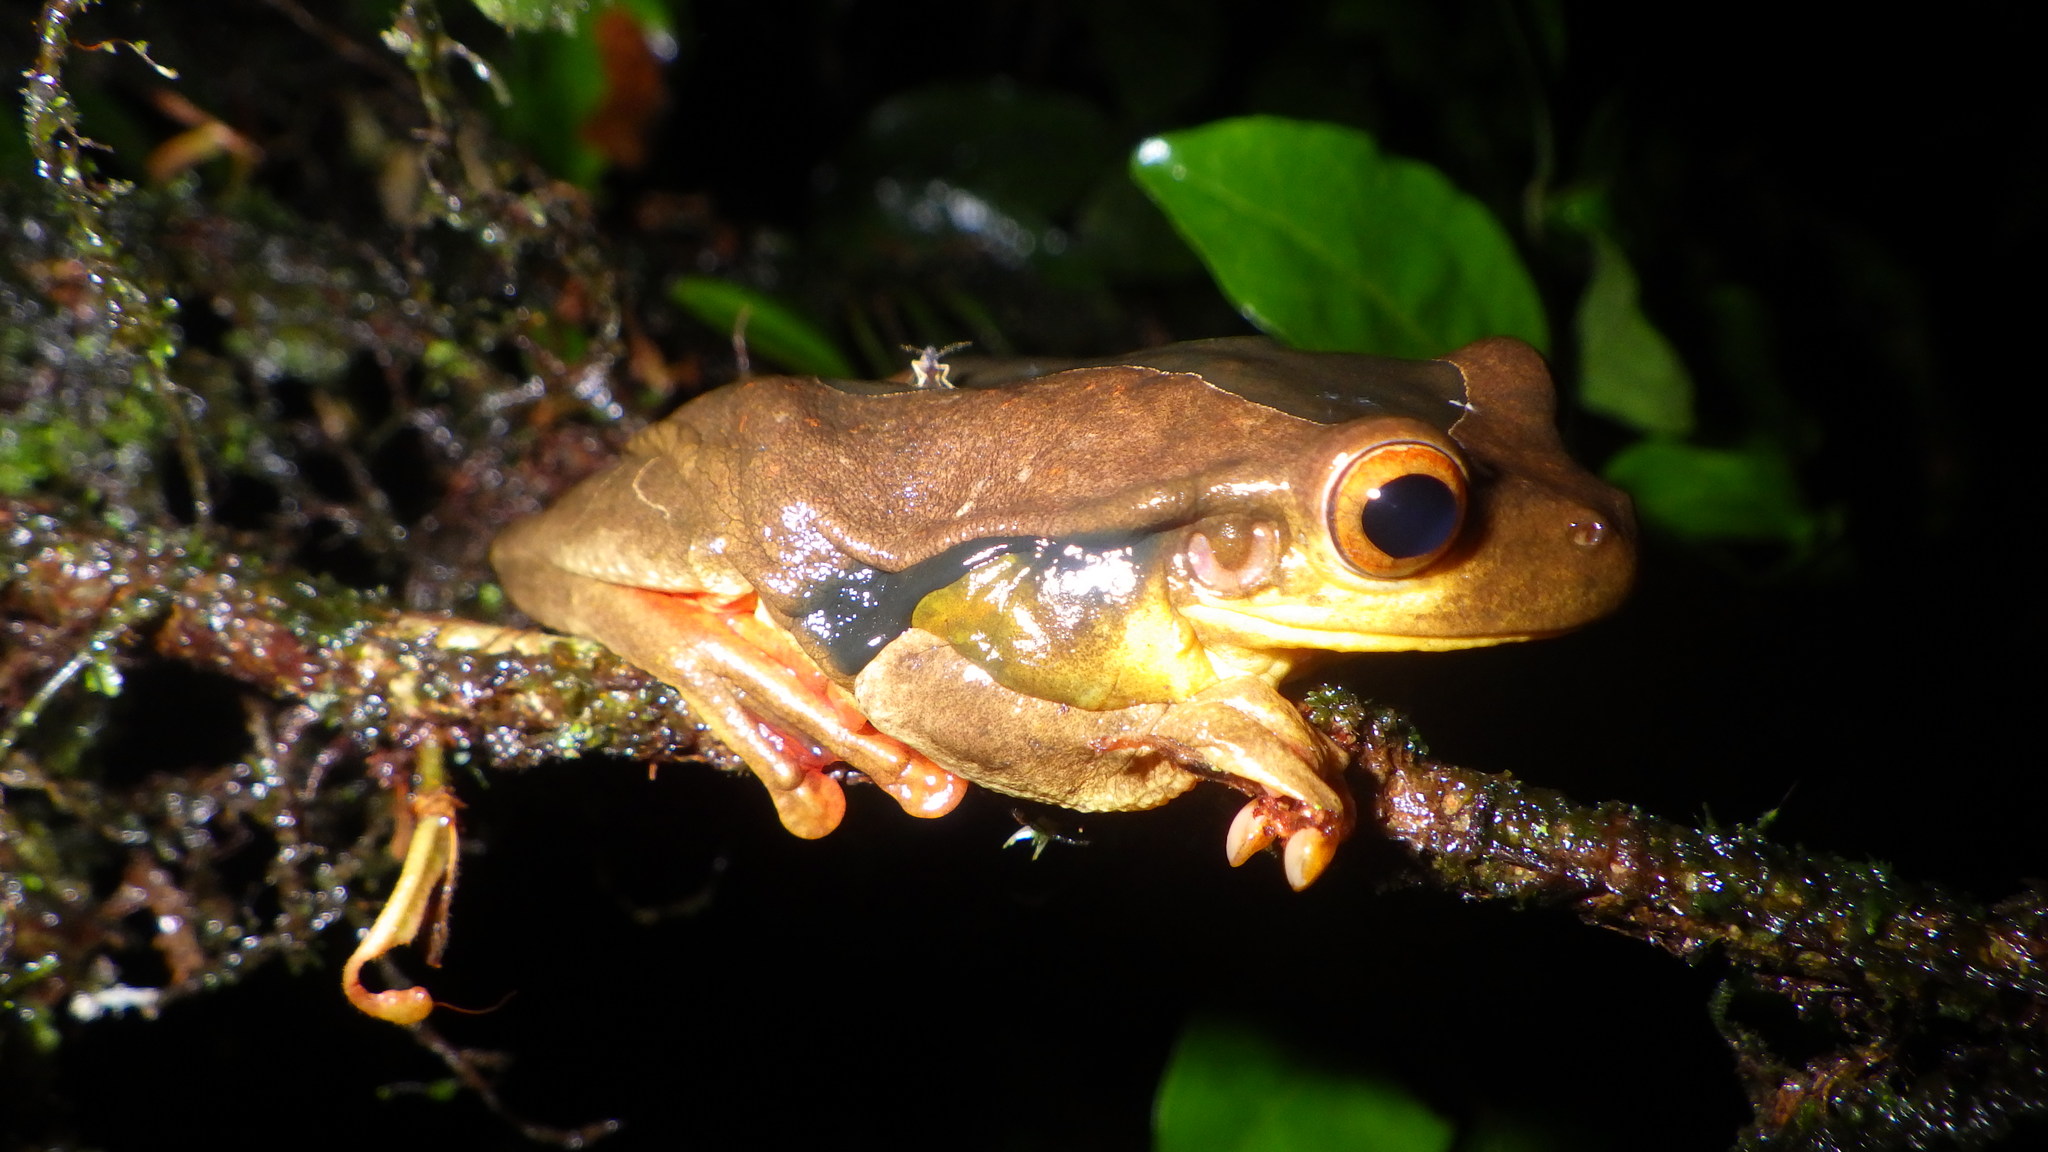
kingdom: Animalia
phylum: Chordata
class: Amphibia
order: Anura
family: Hylidae
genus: Trachycephalus
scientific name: Trachycephalus coriaceus
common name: Surinam casque-heded treefrog
